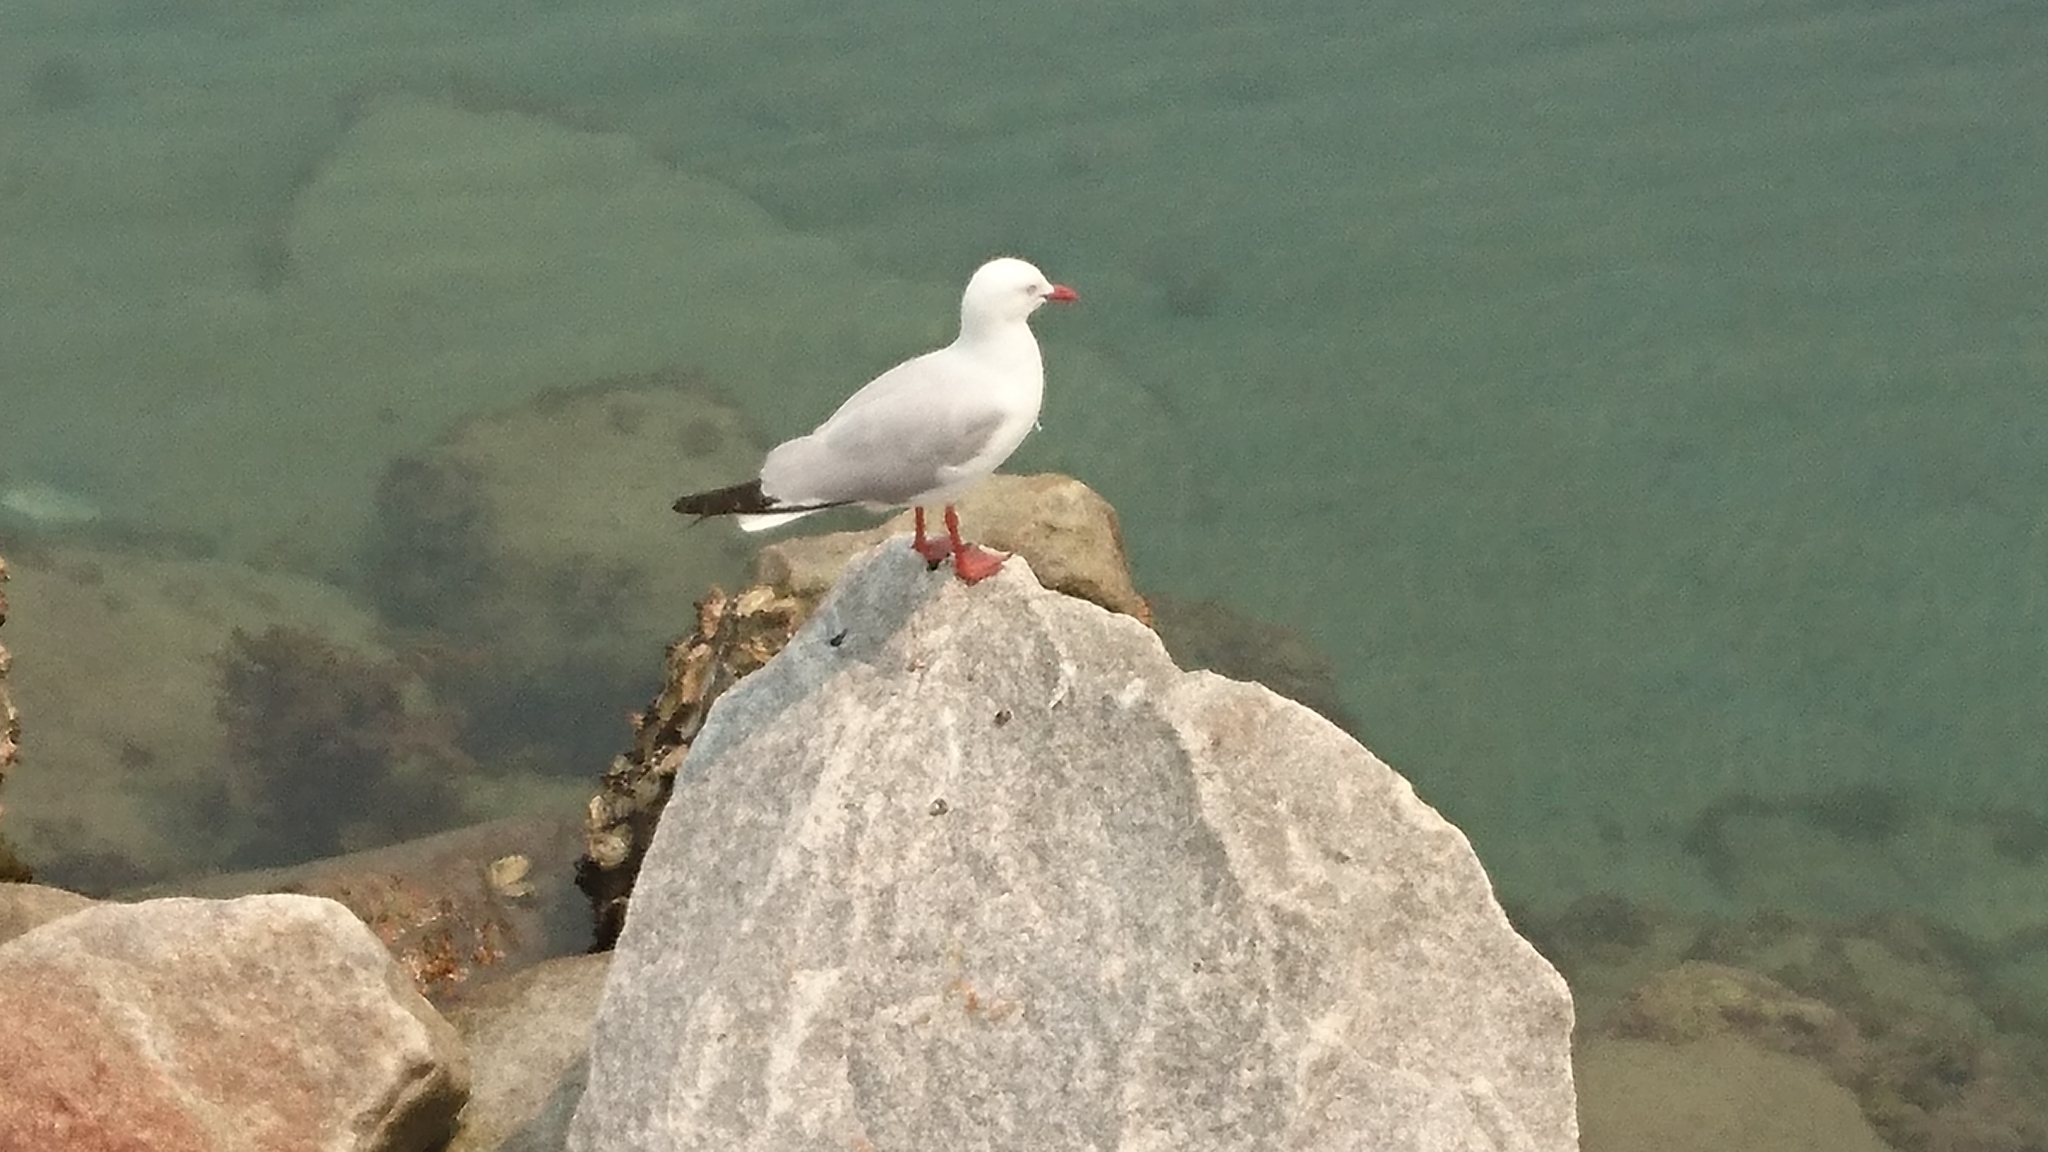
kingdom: Animalia
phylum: Chordata
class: Aves
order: Charadriiformes
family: Laridae
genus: Chroicocephalus
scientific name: Chroicocephalus novaehollandiae
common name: Silver gull
